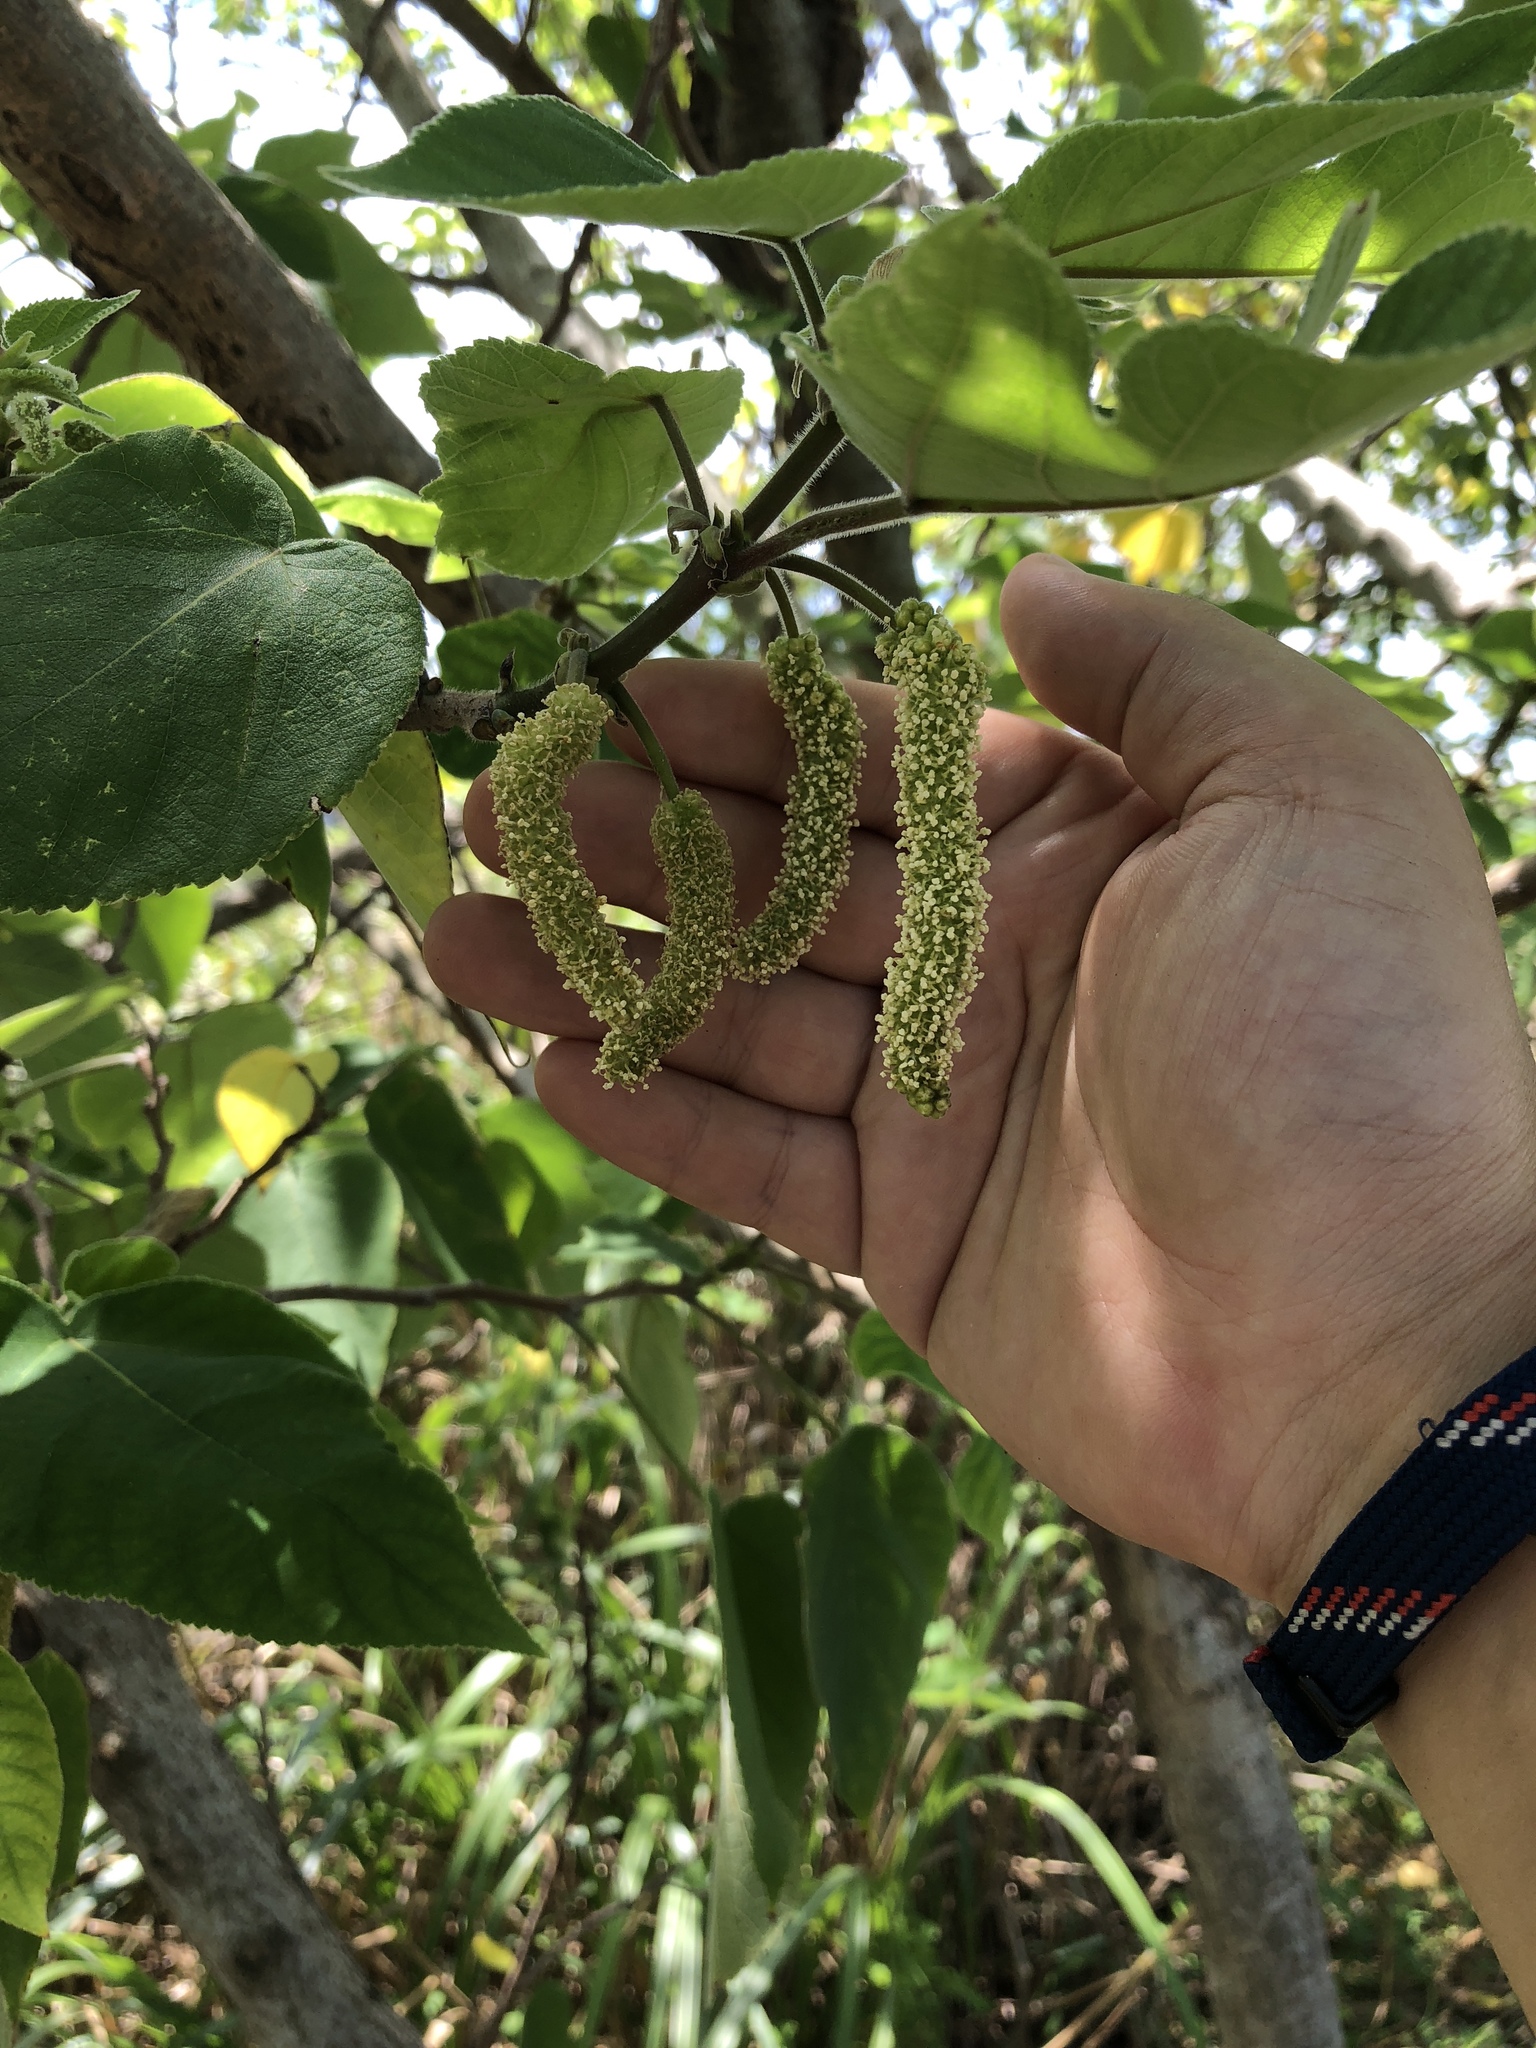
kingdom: Plantae
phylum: Tracheophyta
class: Magnoliopsida
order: Rosales
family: Moraceae
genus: Broussonetia
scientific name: Broussonetia papyrifera
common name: Paper mulberry
